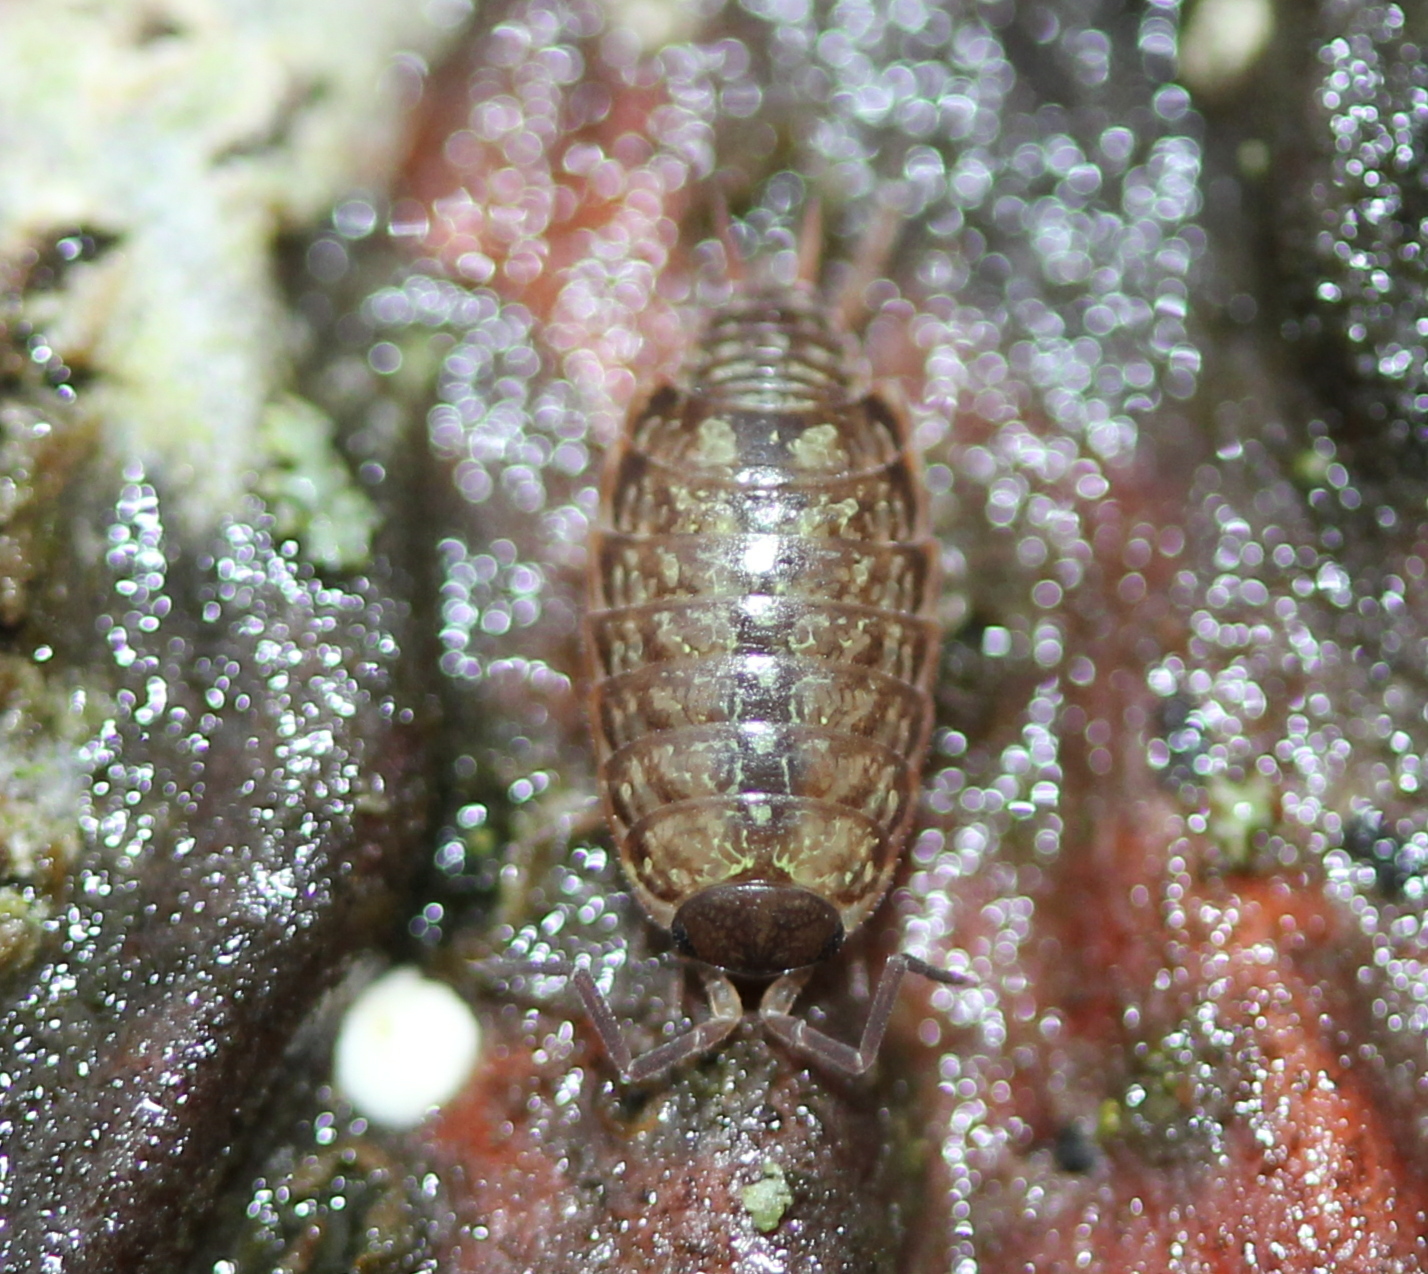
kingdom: Animalia
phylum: Arthropoda
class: Malacostraca
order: Isopoda
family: Philosciidae
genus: Philoscia
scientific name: Philoscia muscorum
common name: Common striped woodlouse
